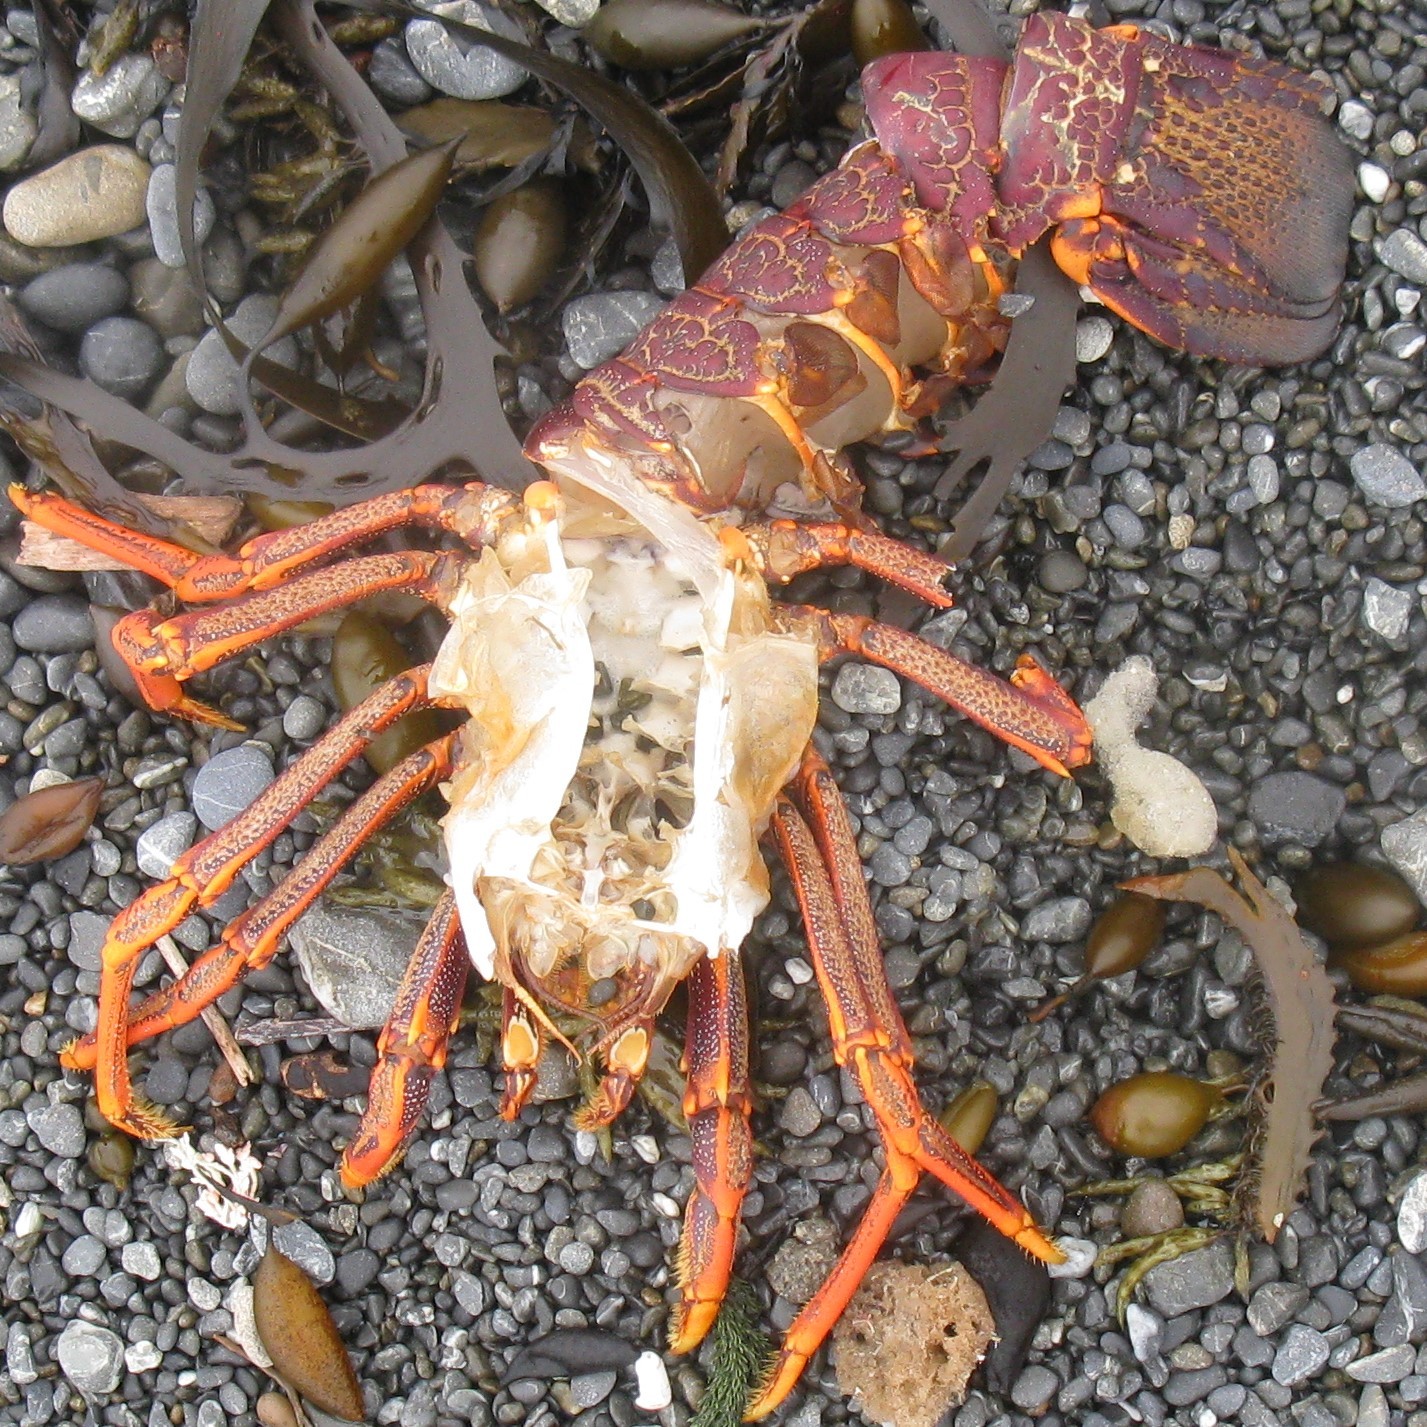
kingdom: Animalia
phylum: Arthropoda
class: Malacostraca
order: Decapoda
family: Palinuridae
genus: Jasus
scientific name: Jasus edwardsii
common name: Red rock lobster
